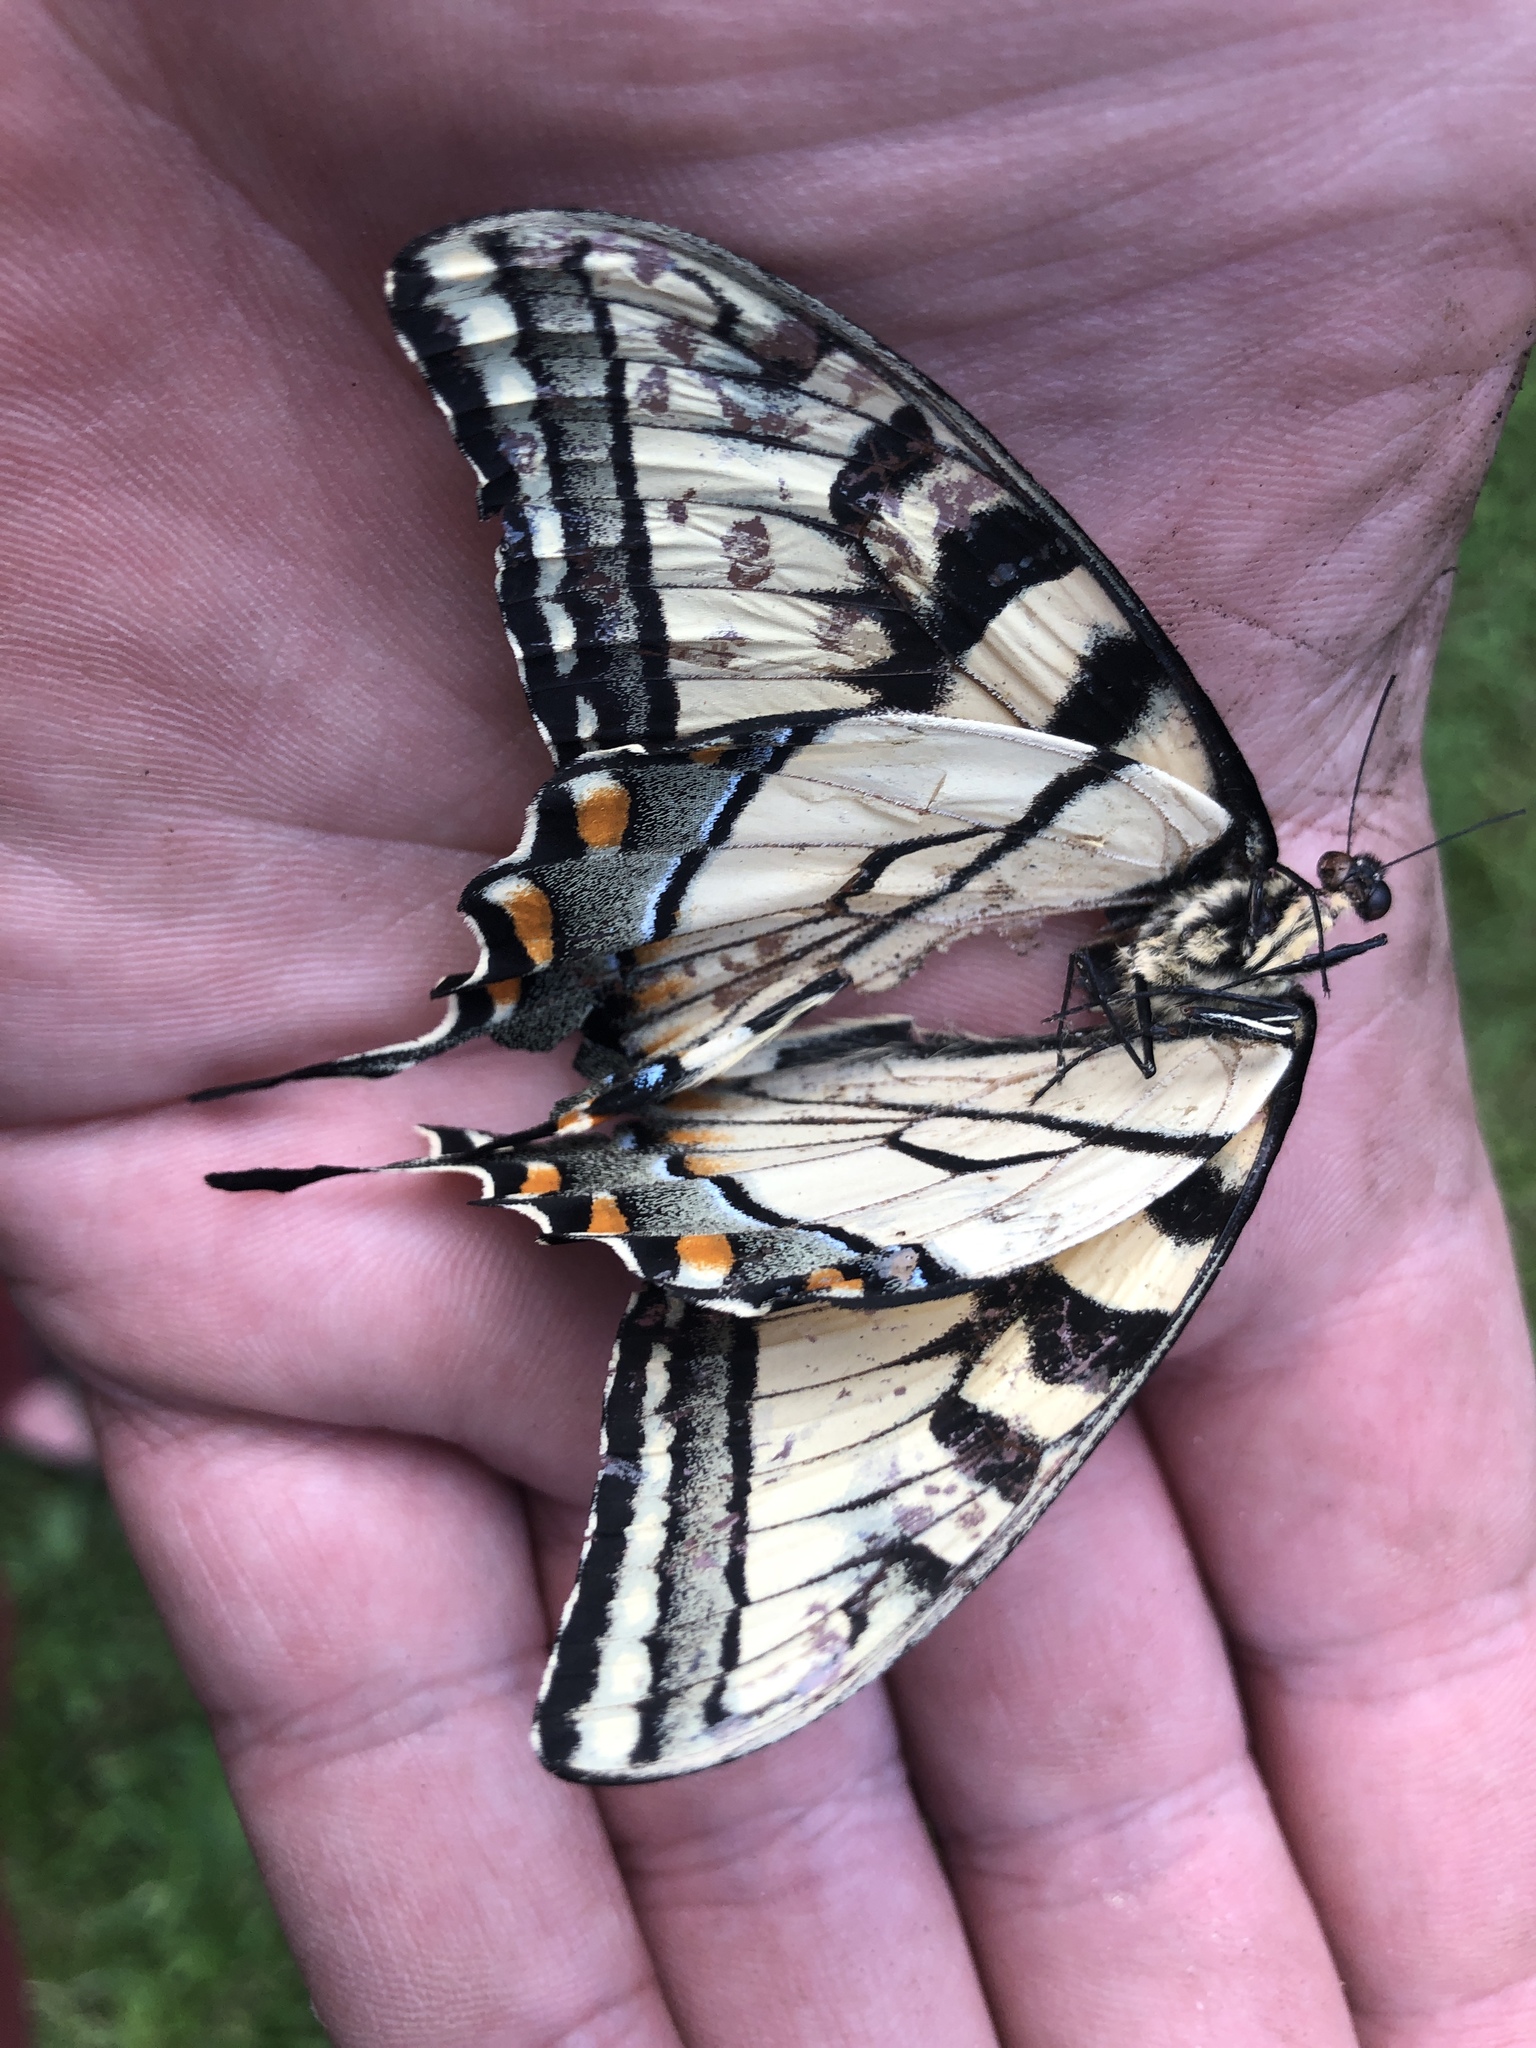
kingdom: Animalia
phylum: Arthropoda
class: Insecta
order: Lepidoptera
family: Papilionidae
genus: Papilio
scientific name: Papilio
